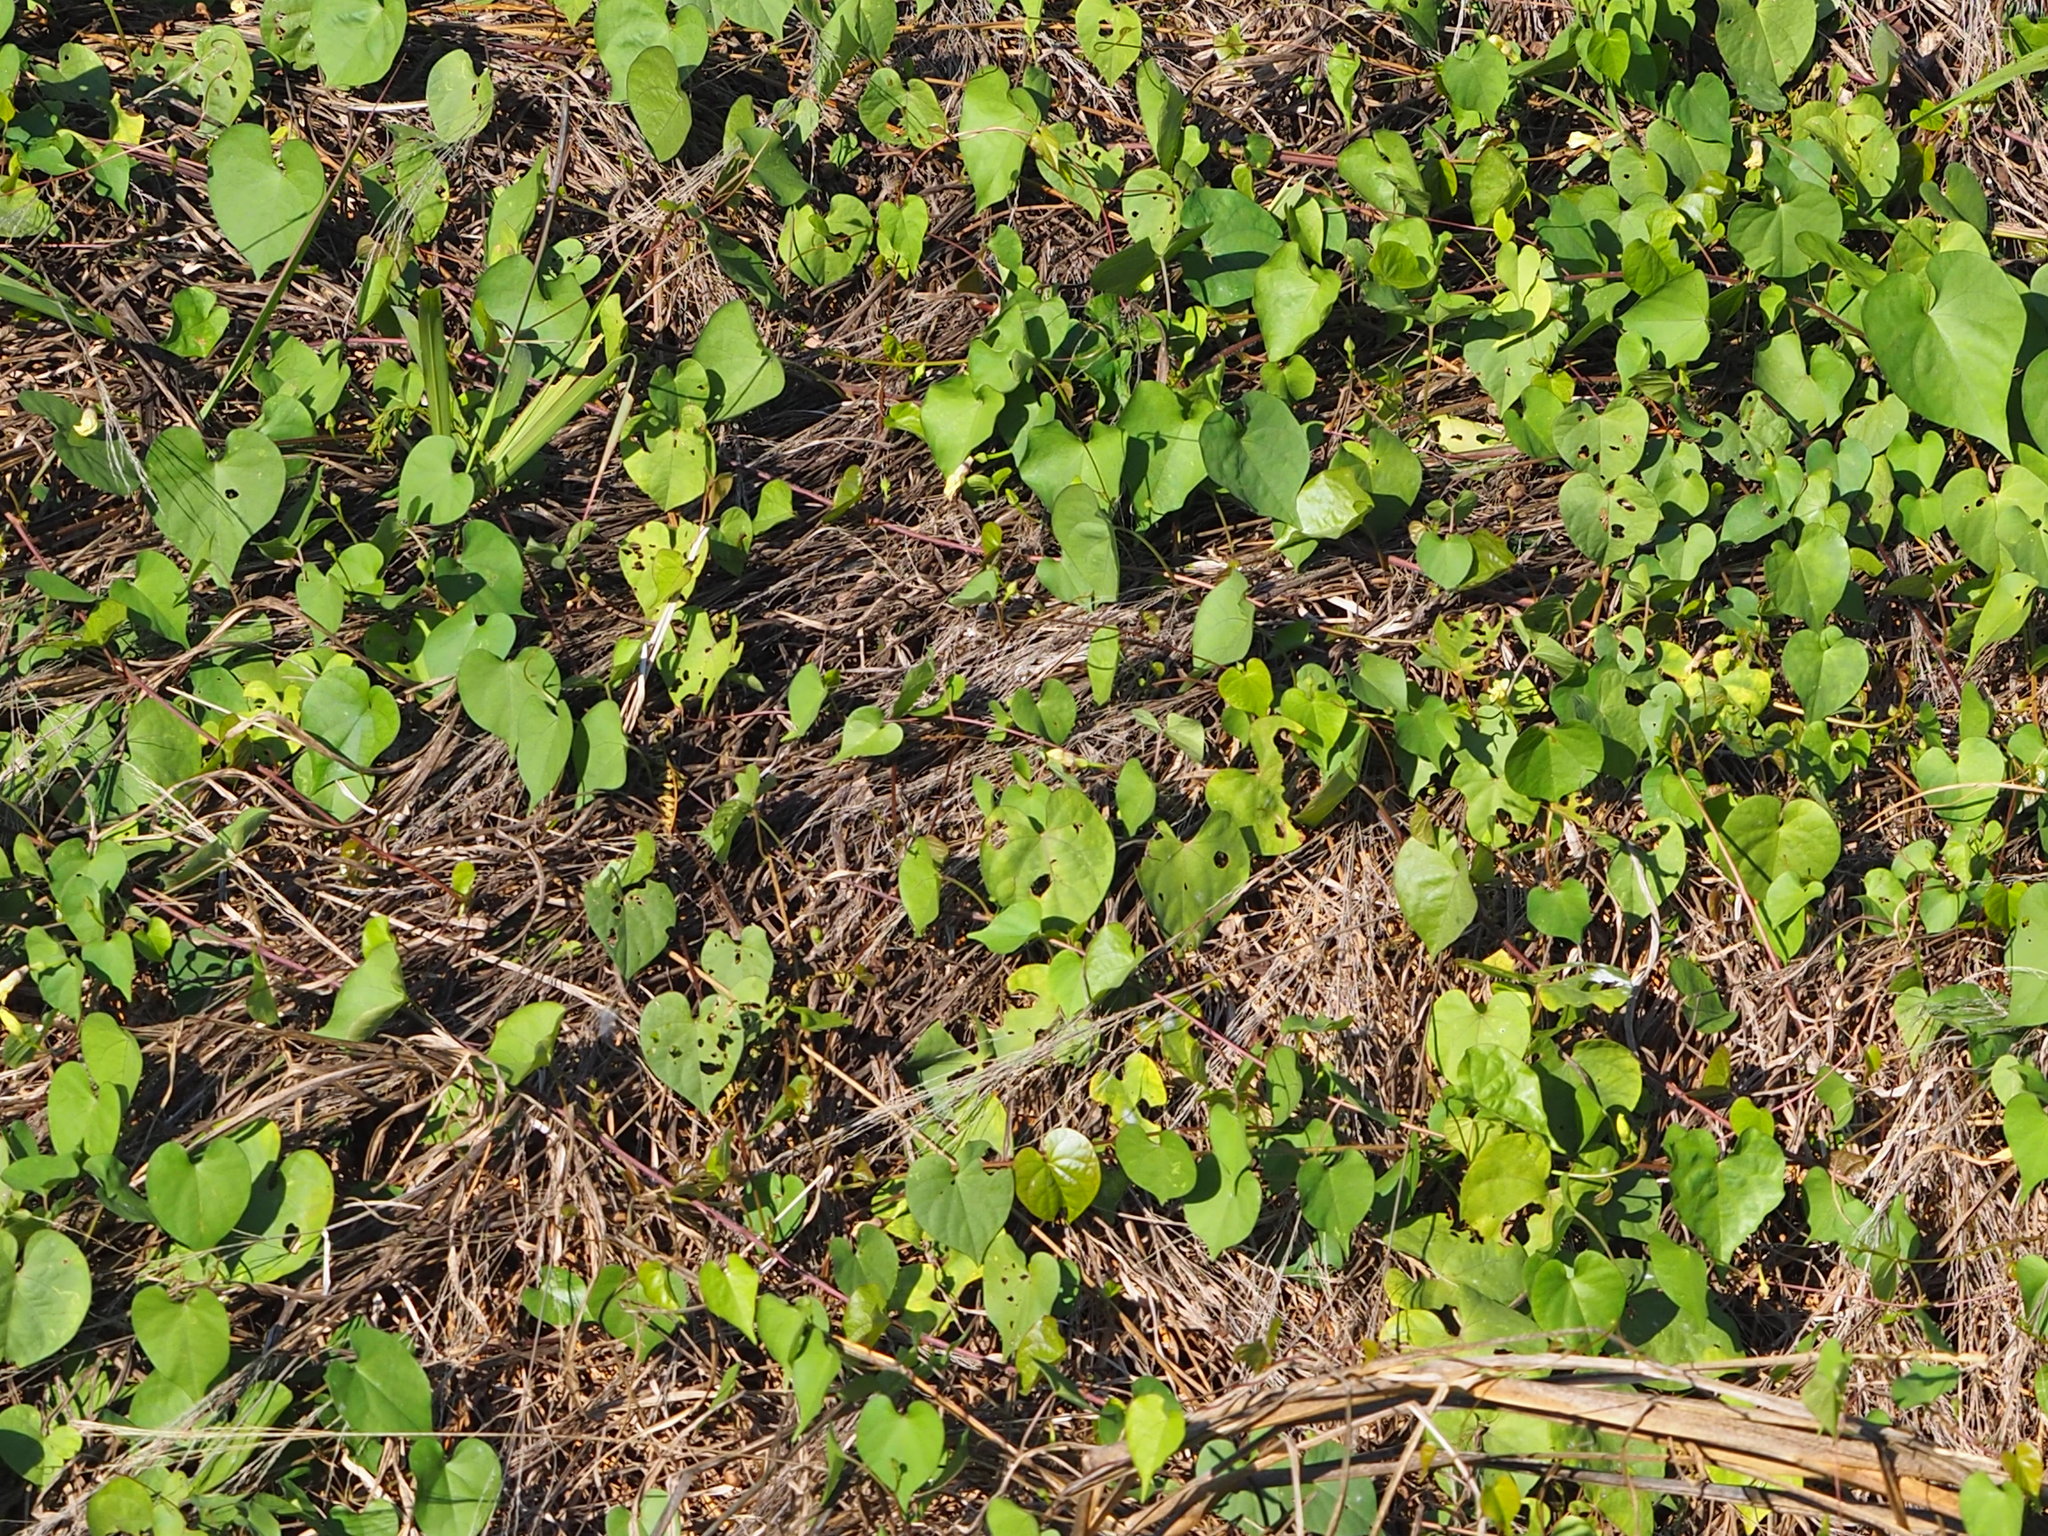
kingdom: Plantae
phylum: Tracheophyta
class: Magnoliopsida
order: Solanales
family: Convolvulaceae
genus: Ipomoea
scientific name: Ipomoea obscura
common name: Obscure morning-glory
